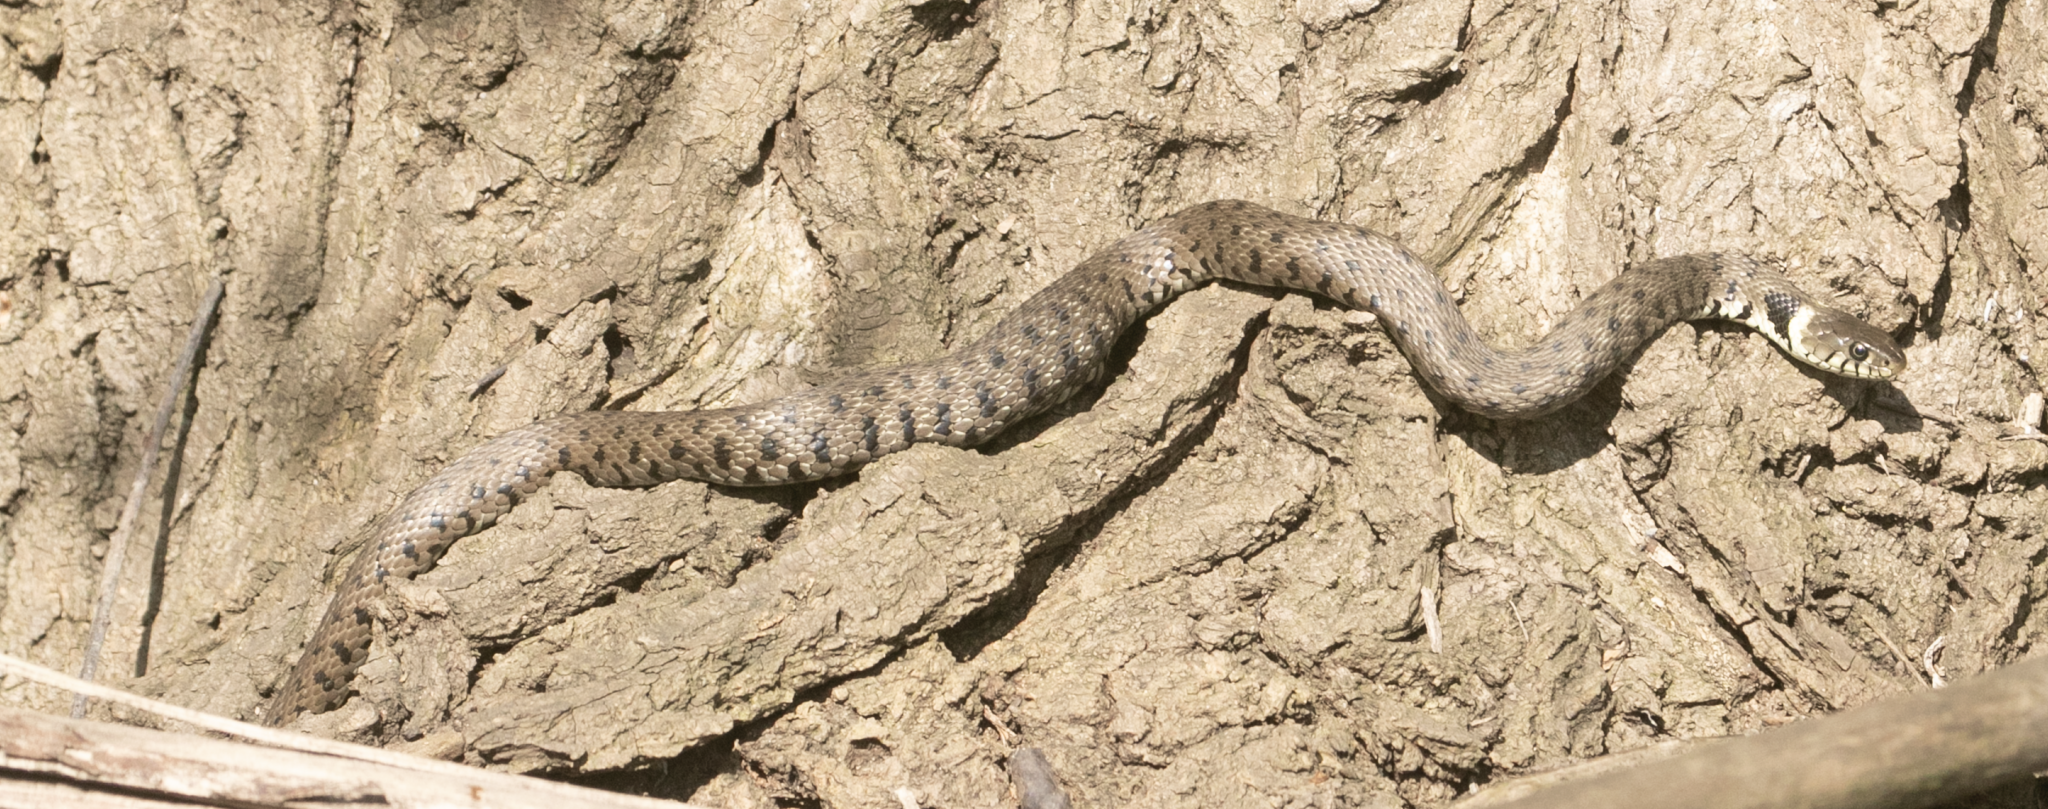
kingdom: Animalia
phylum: Chordata
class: Squamata
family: Colubridae
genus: Natrix
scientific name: Natrix helvetica
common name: Banded grass snake
